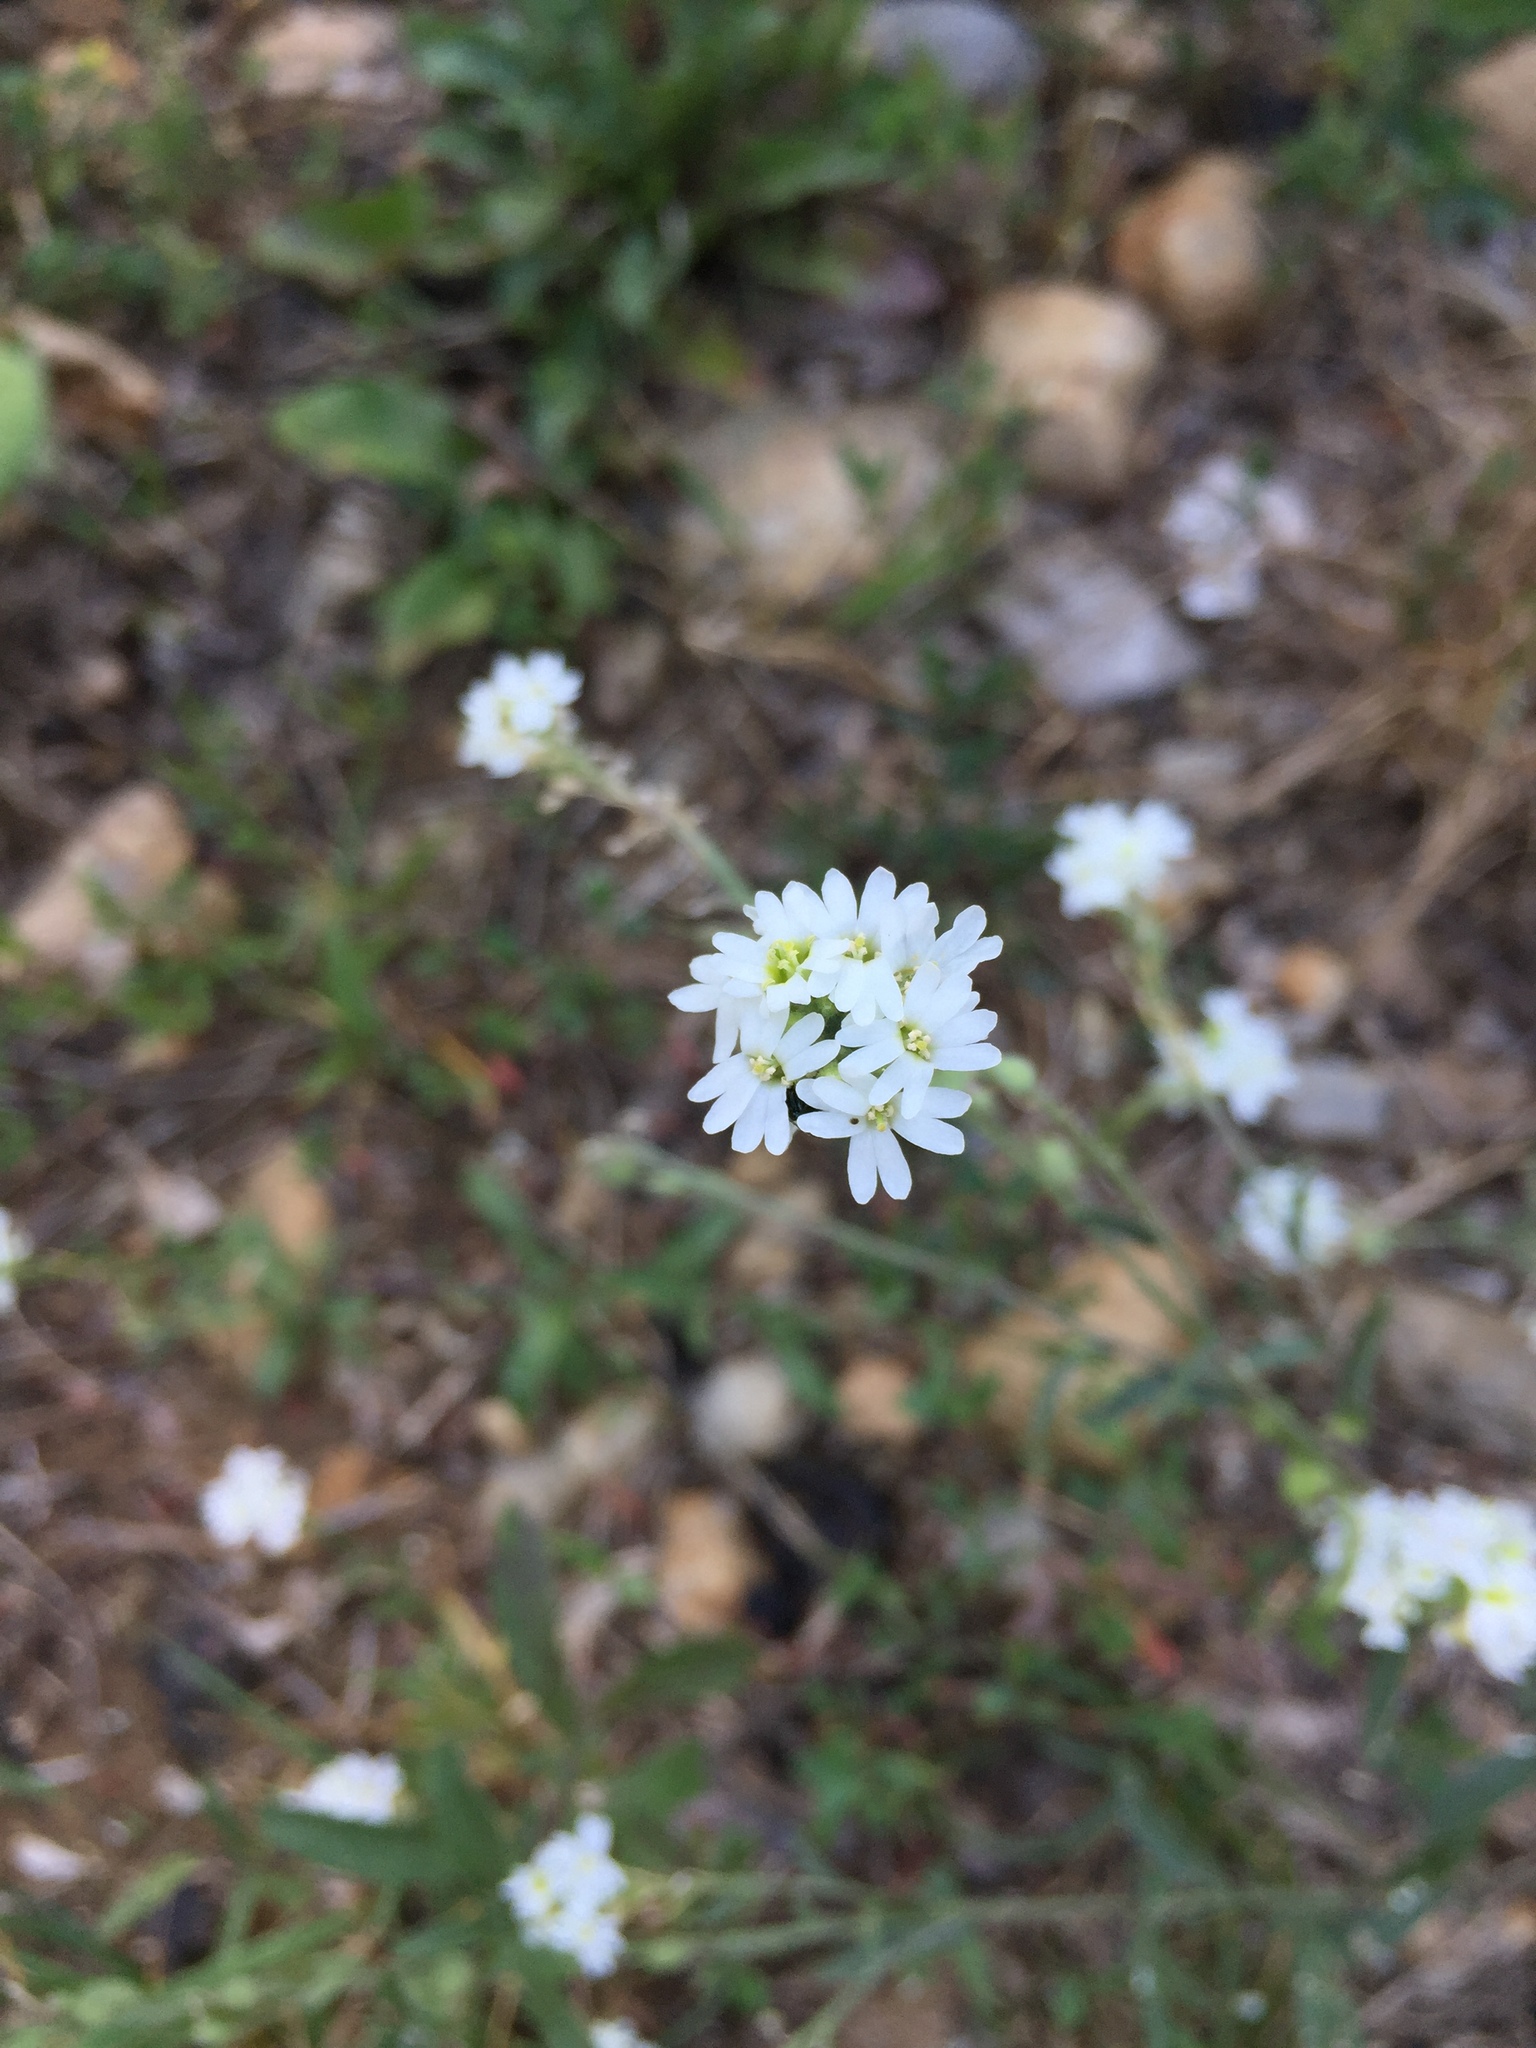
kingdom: Plantae
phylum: Tracheophyta
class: Magnoliopsida
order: Brassicales
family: Brassicaceae
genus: Berteroa
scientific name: Berteroa incana
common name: Hoary alison
